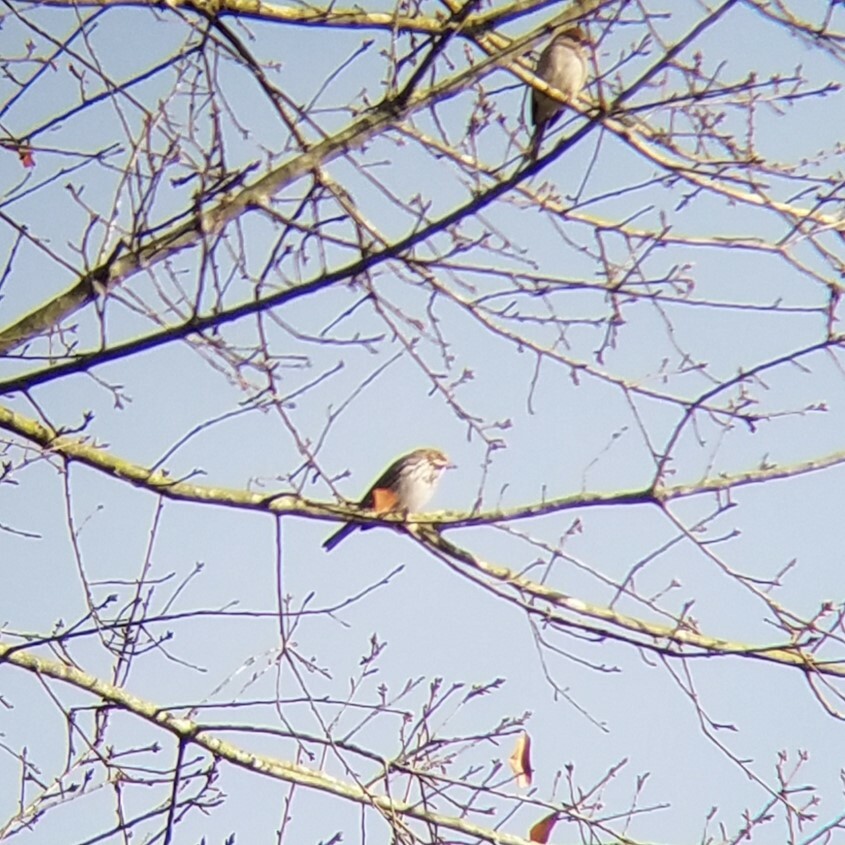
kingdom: Animalia
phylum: Chordata
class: Aves
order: Passeriformes
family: Fringillidae
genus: Haemorhous
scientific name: Haemorhous purpureus
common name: Purple finch
